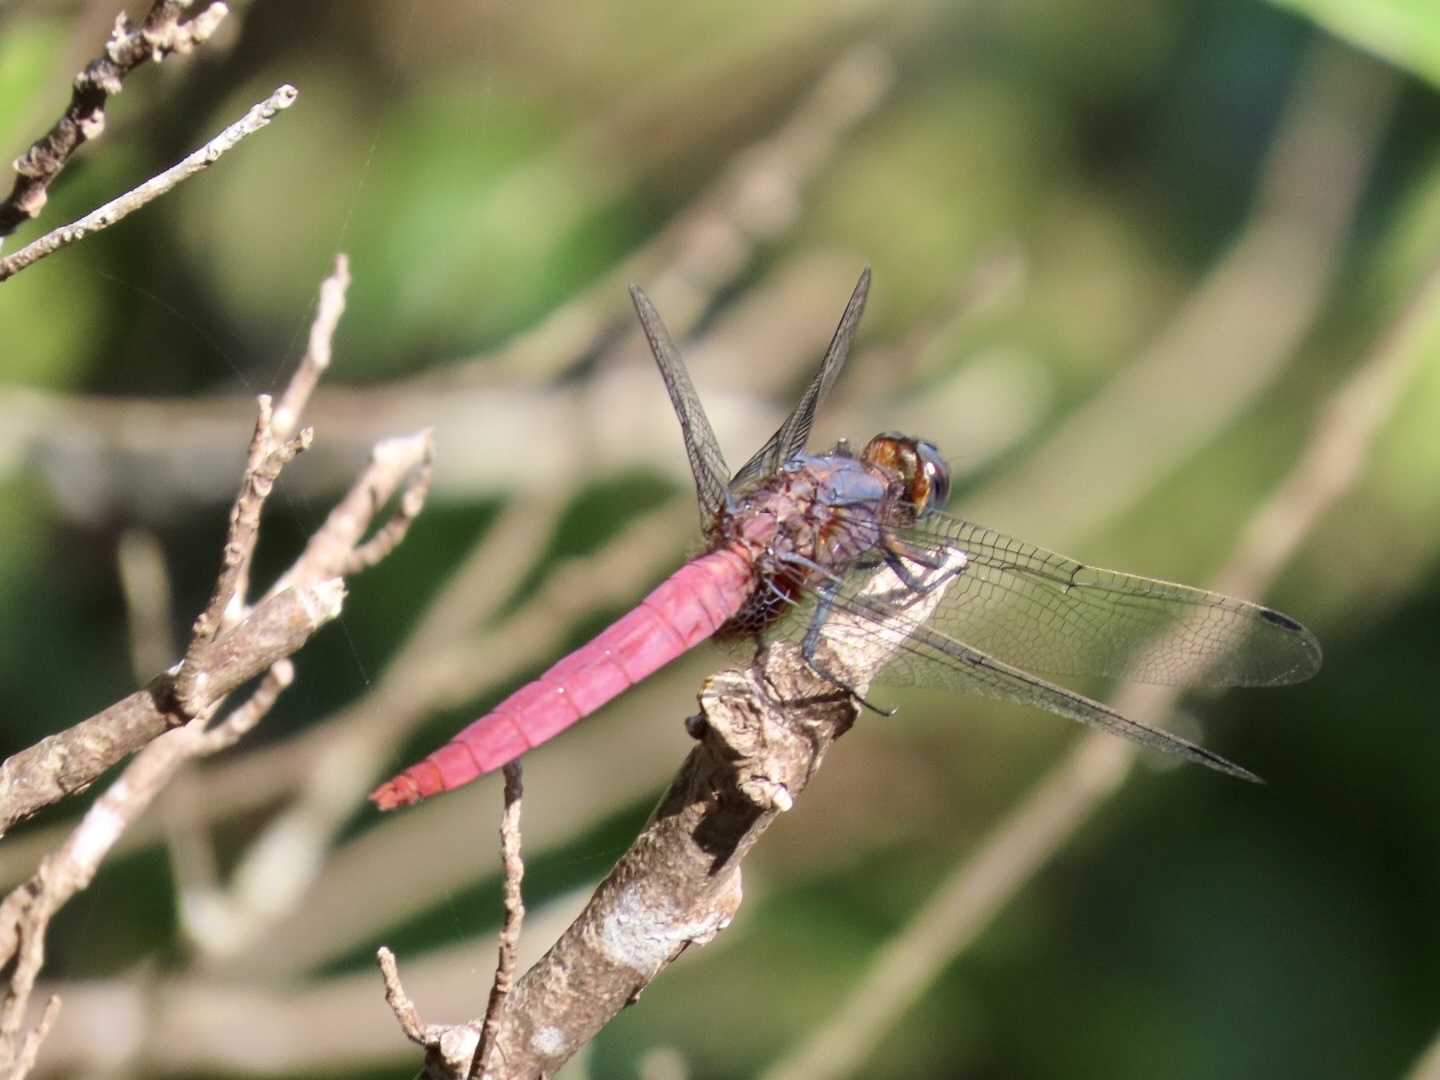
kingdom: Animalia
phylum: Arthropoda
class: Insecta
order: Odonata
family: Libellulidae
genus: Orthetrum
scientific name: Orthetrum pruinosum
